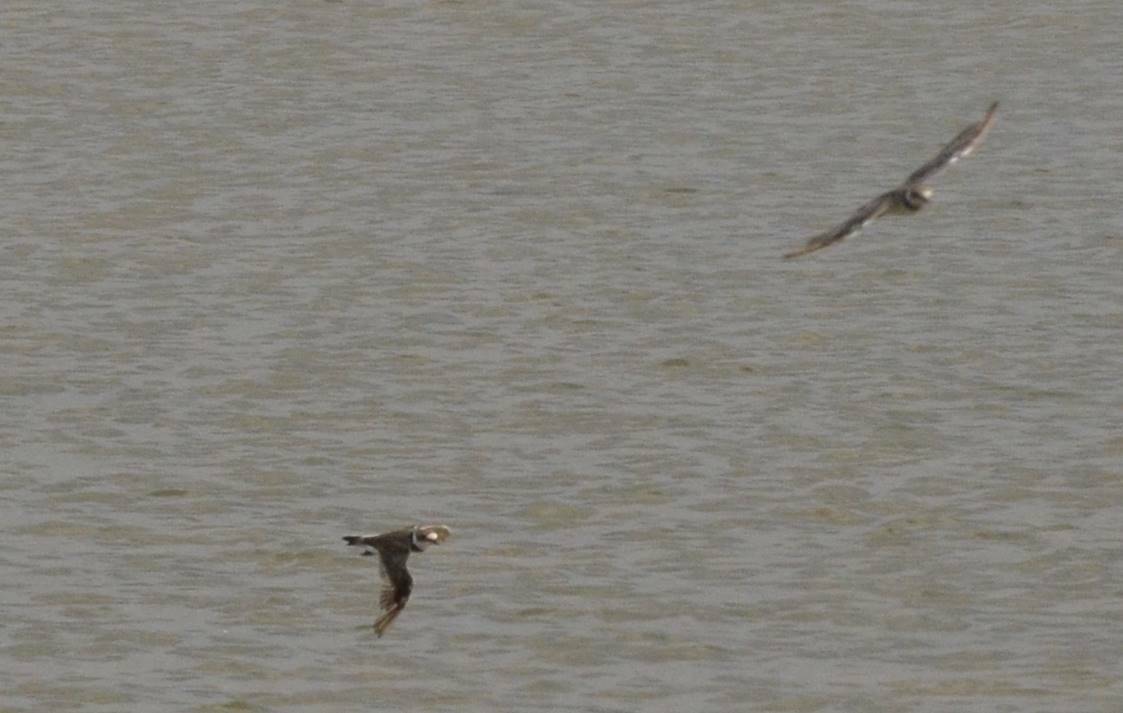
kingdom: Animalia
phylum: Chordata
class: Aves
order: Charadriiformes
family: Charadriidae
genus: Charadrius
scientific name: Charadrius hiaticula
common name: Common ringed plover
